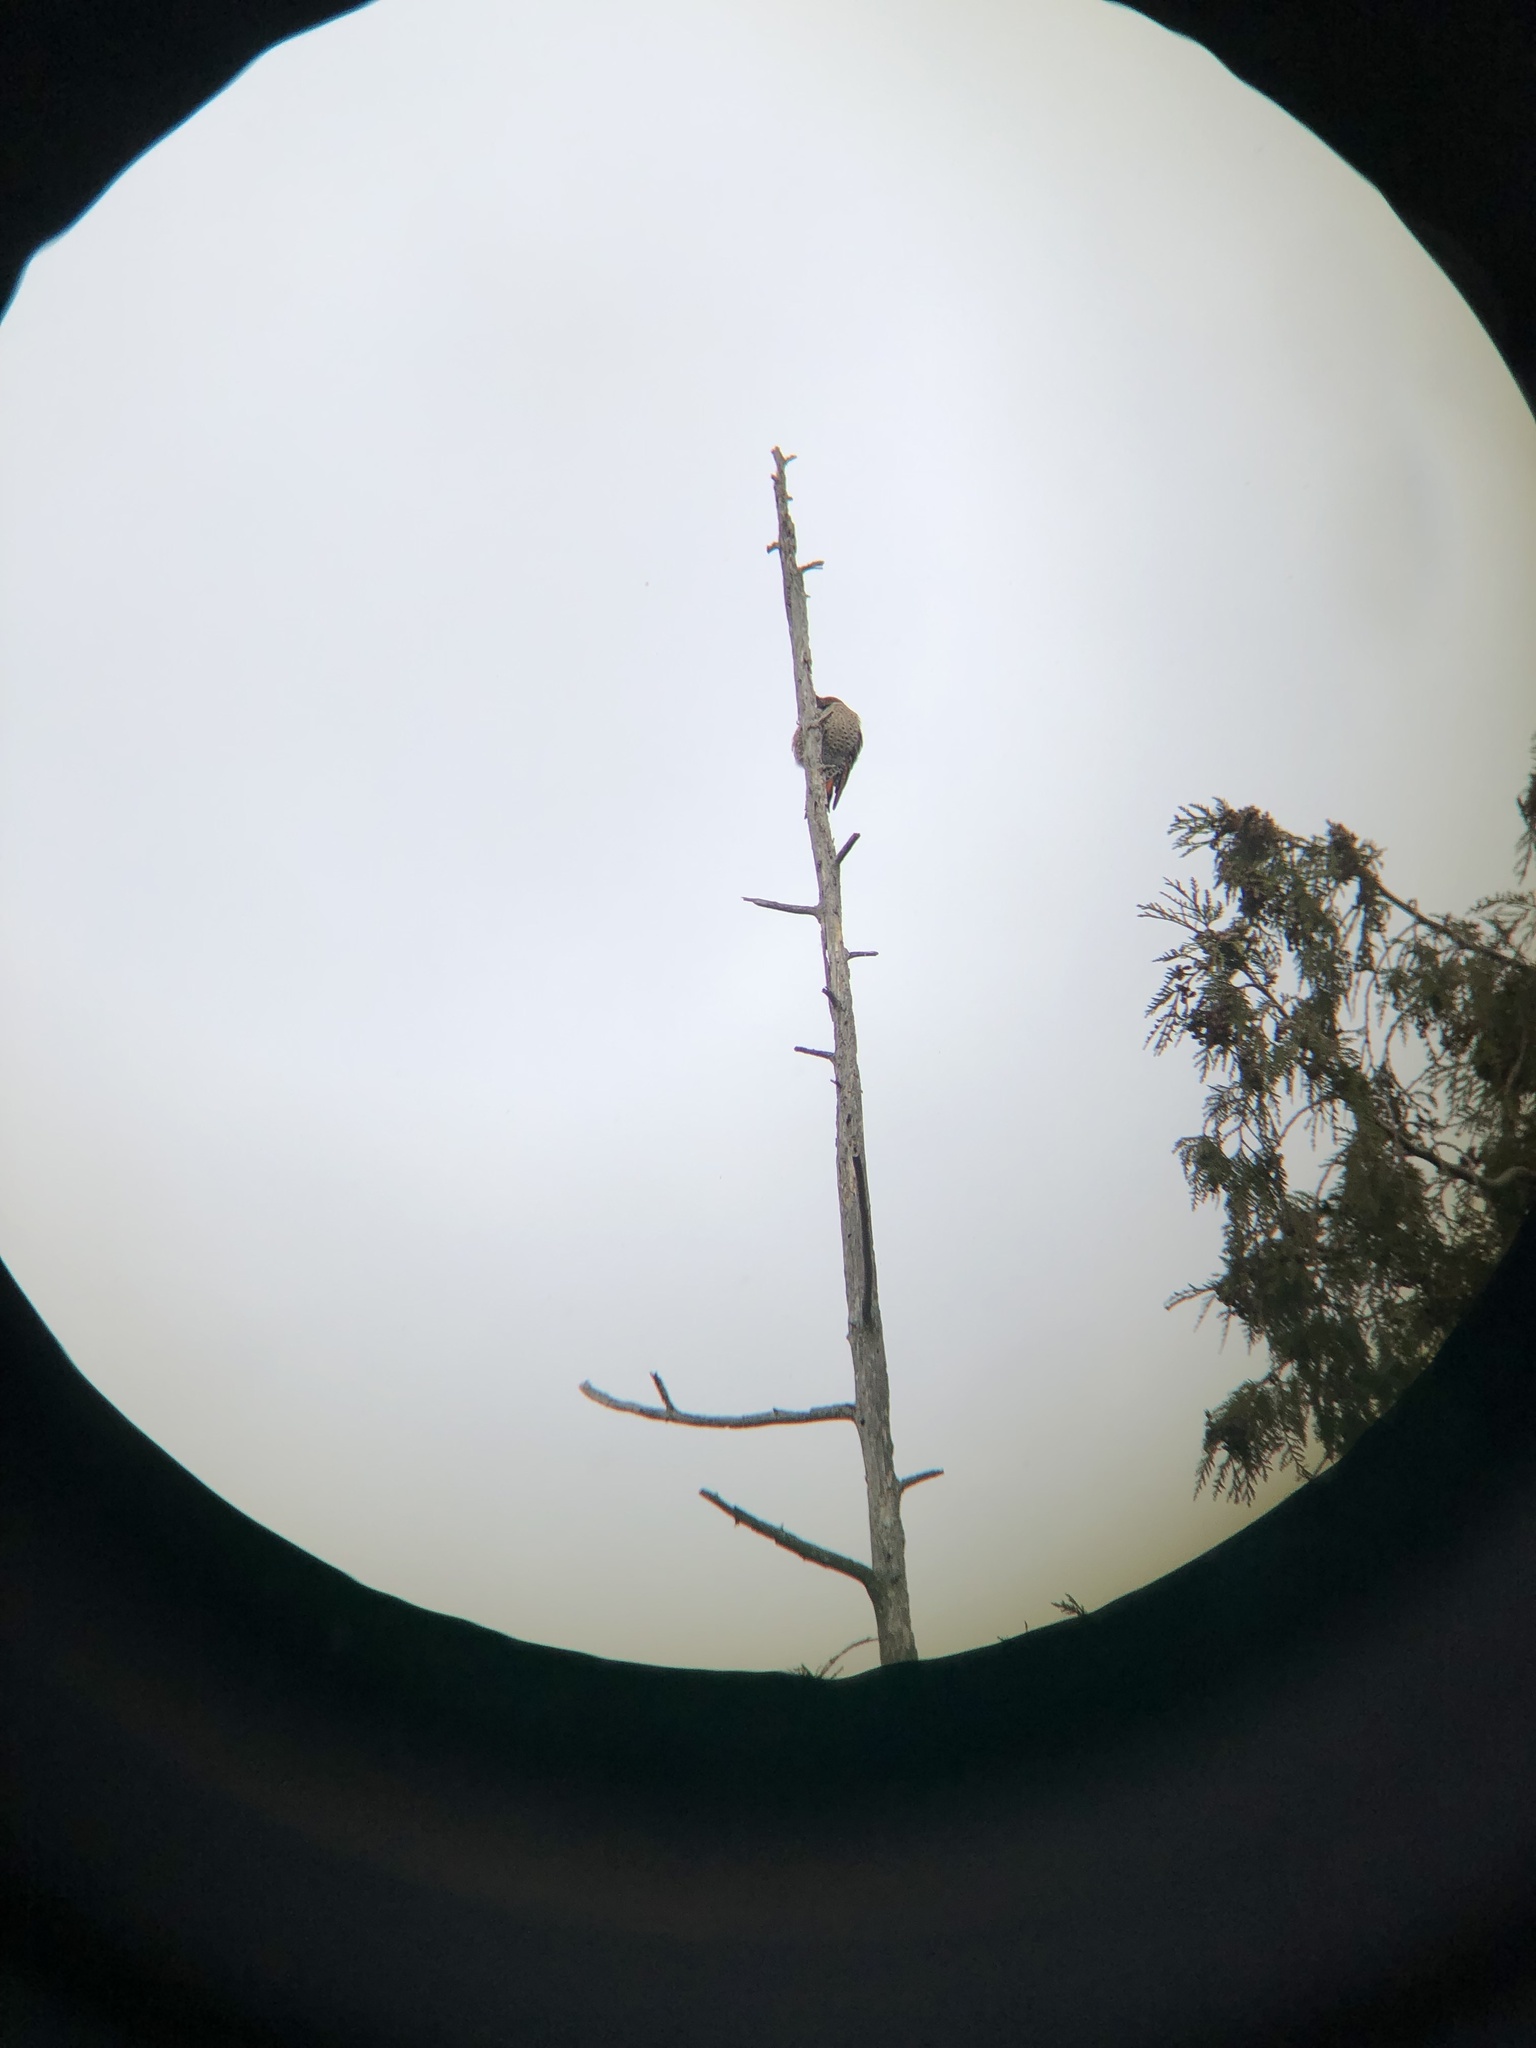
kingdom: Animalia
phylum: Chordata
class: Aves
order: Piciformes
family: Picidae
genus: Colaptes
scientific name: Colaptes auratus
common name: Northern flicker
